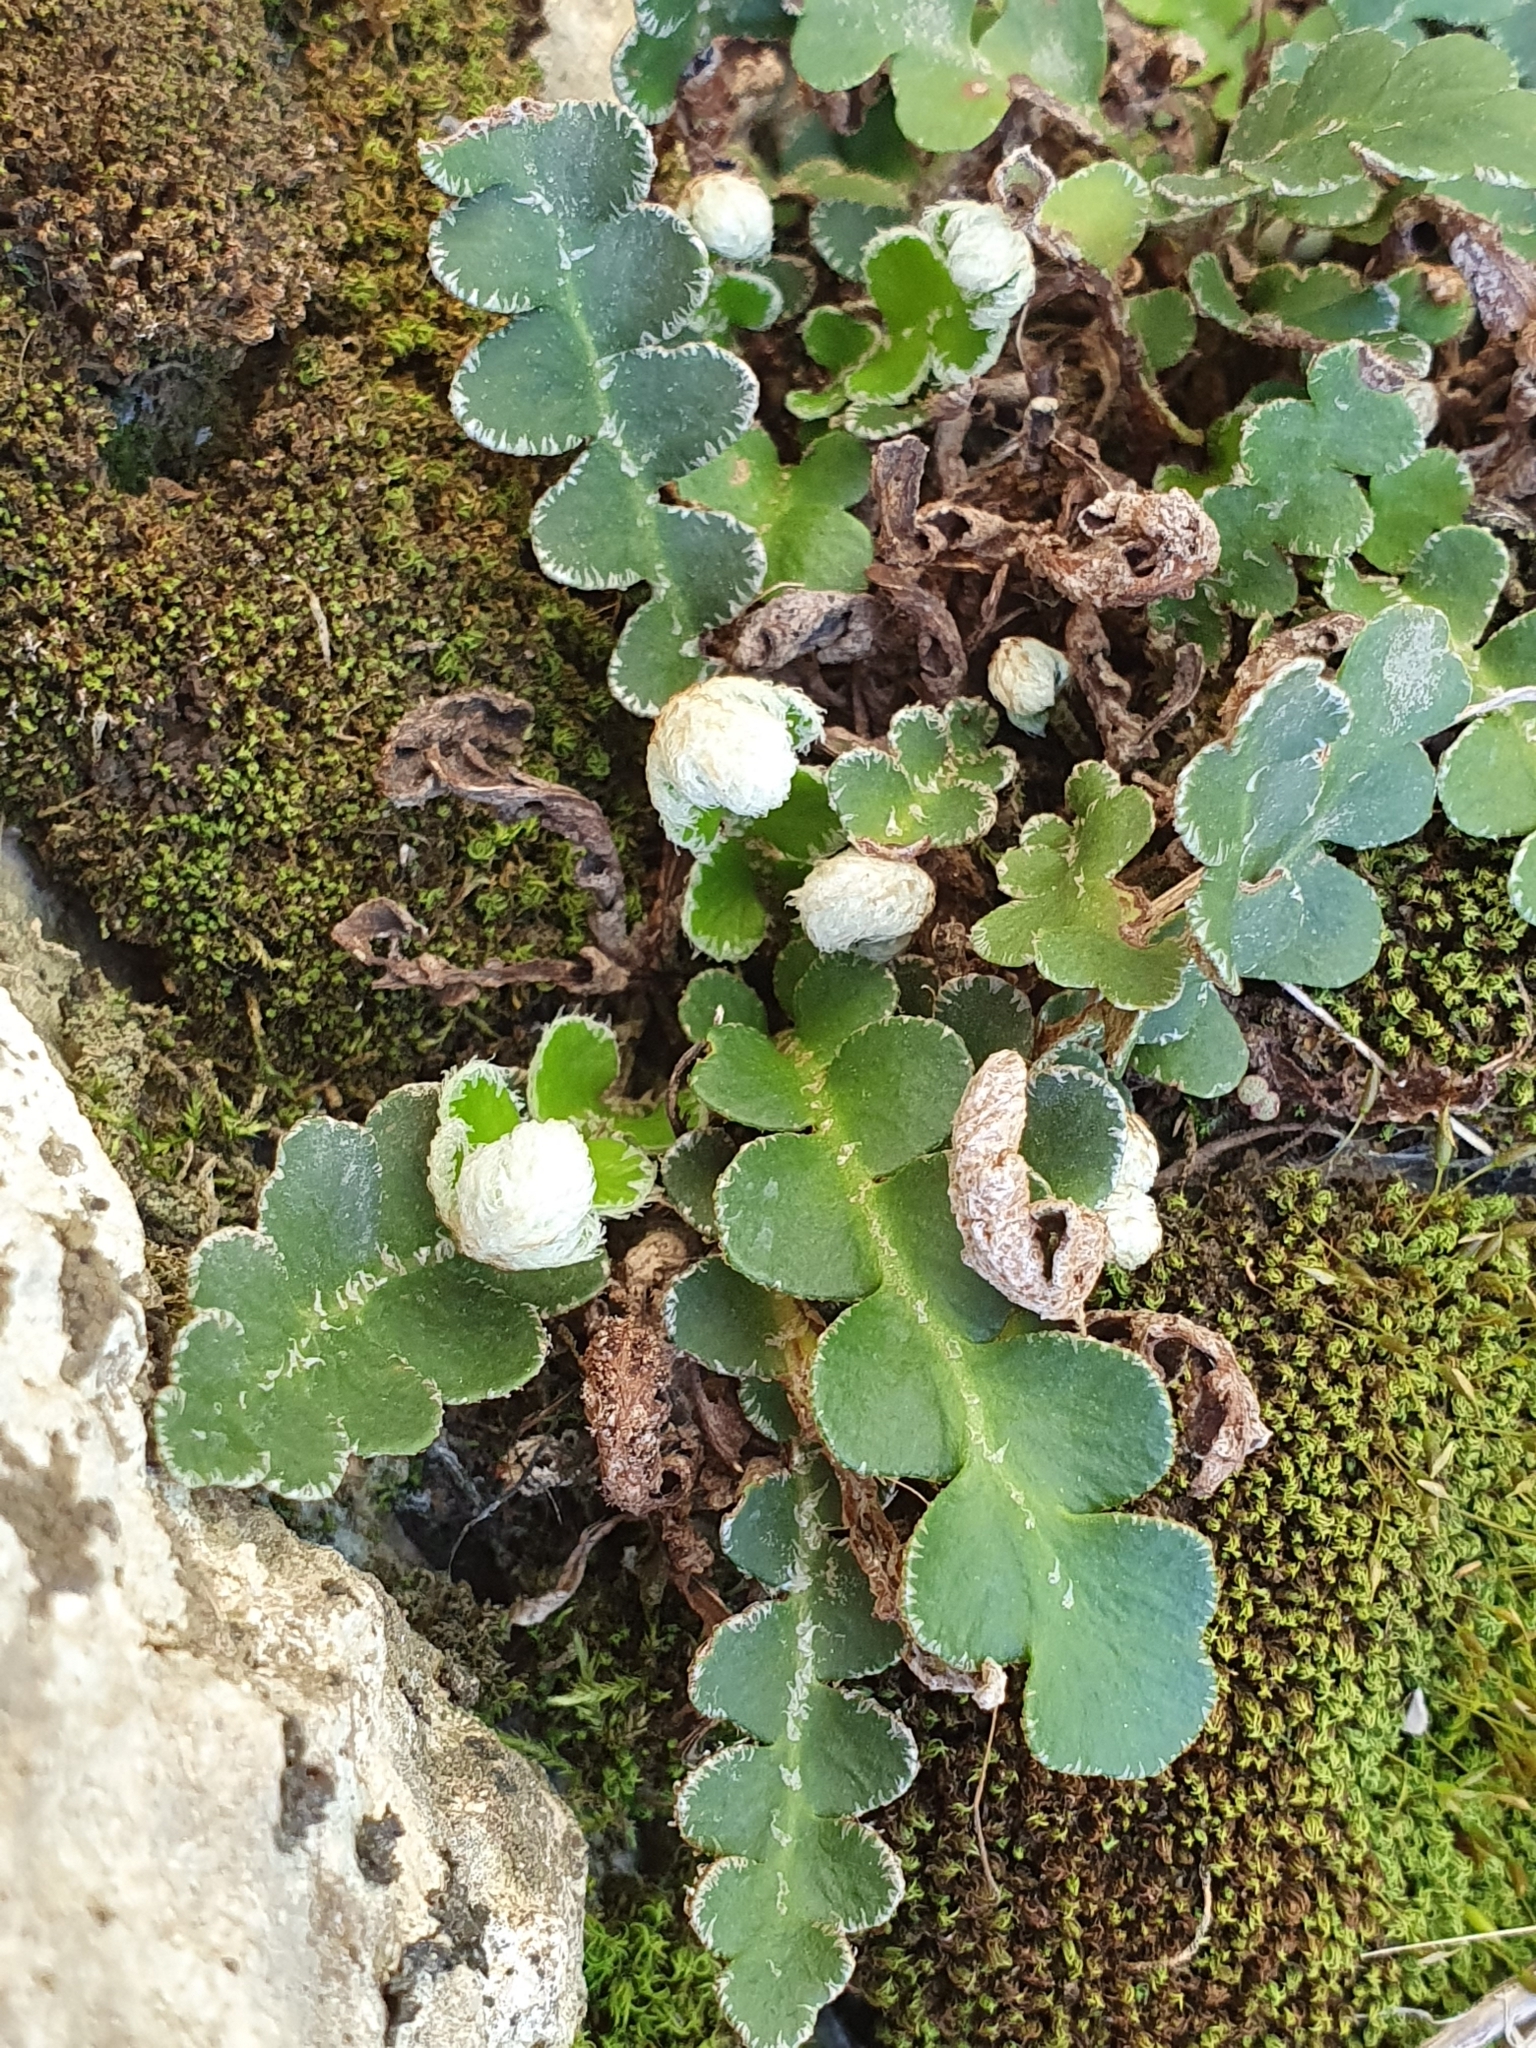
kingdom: Plantae
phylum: Tracheophyta
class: Polypodiopsida
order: Polypodiales
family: Aspleniaceae
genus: Asplenium
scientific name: Asplenium ceterach
